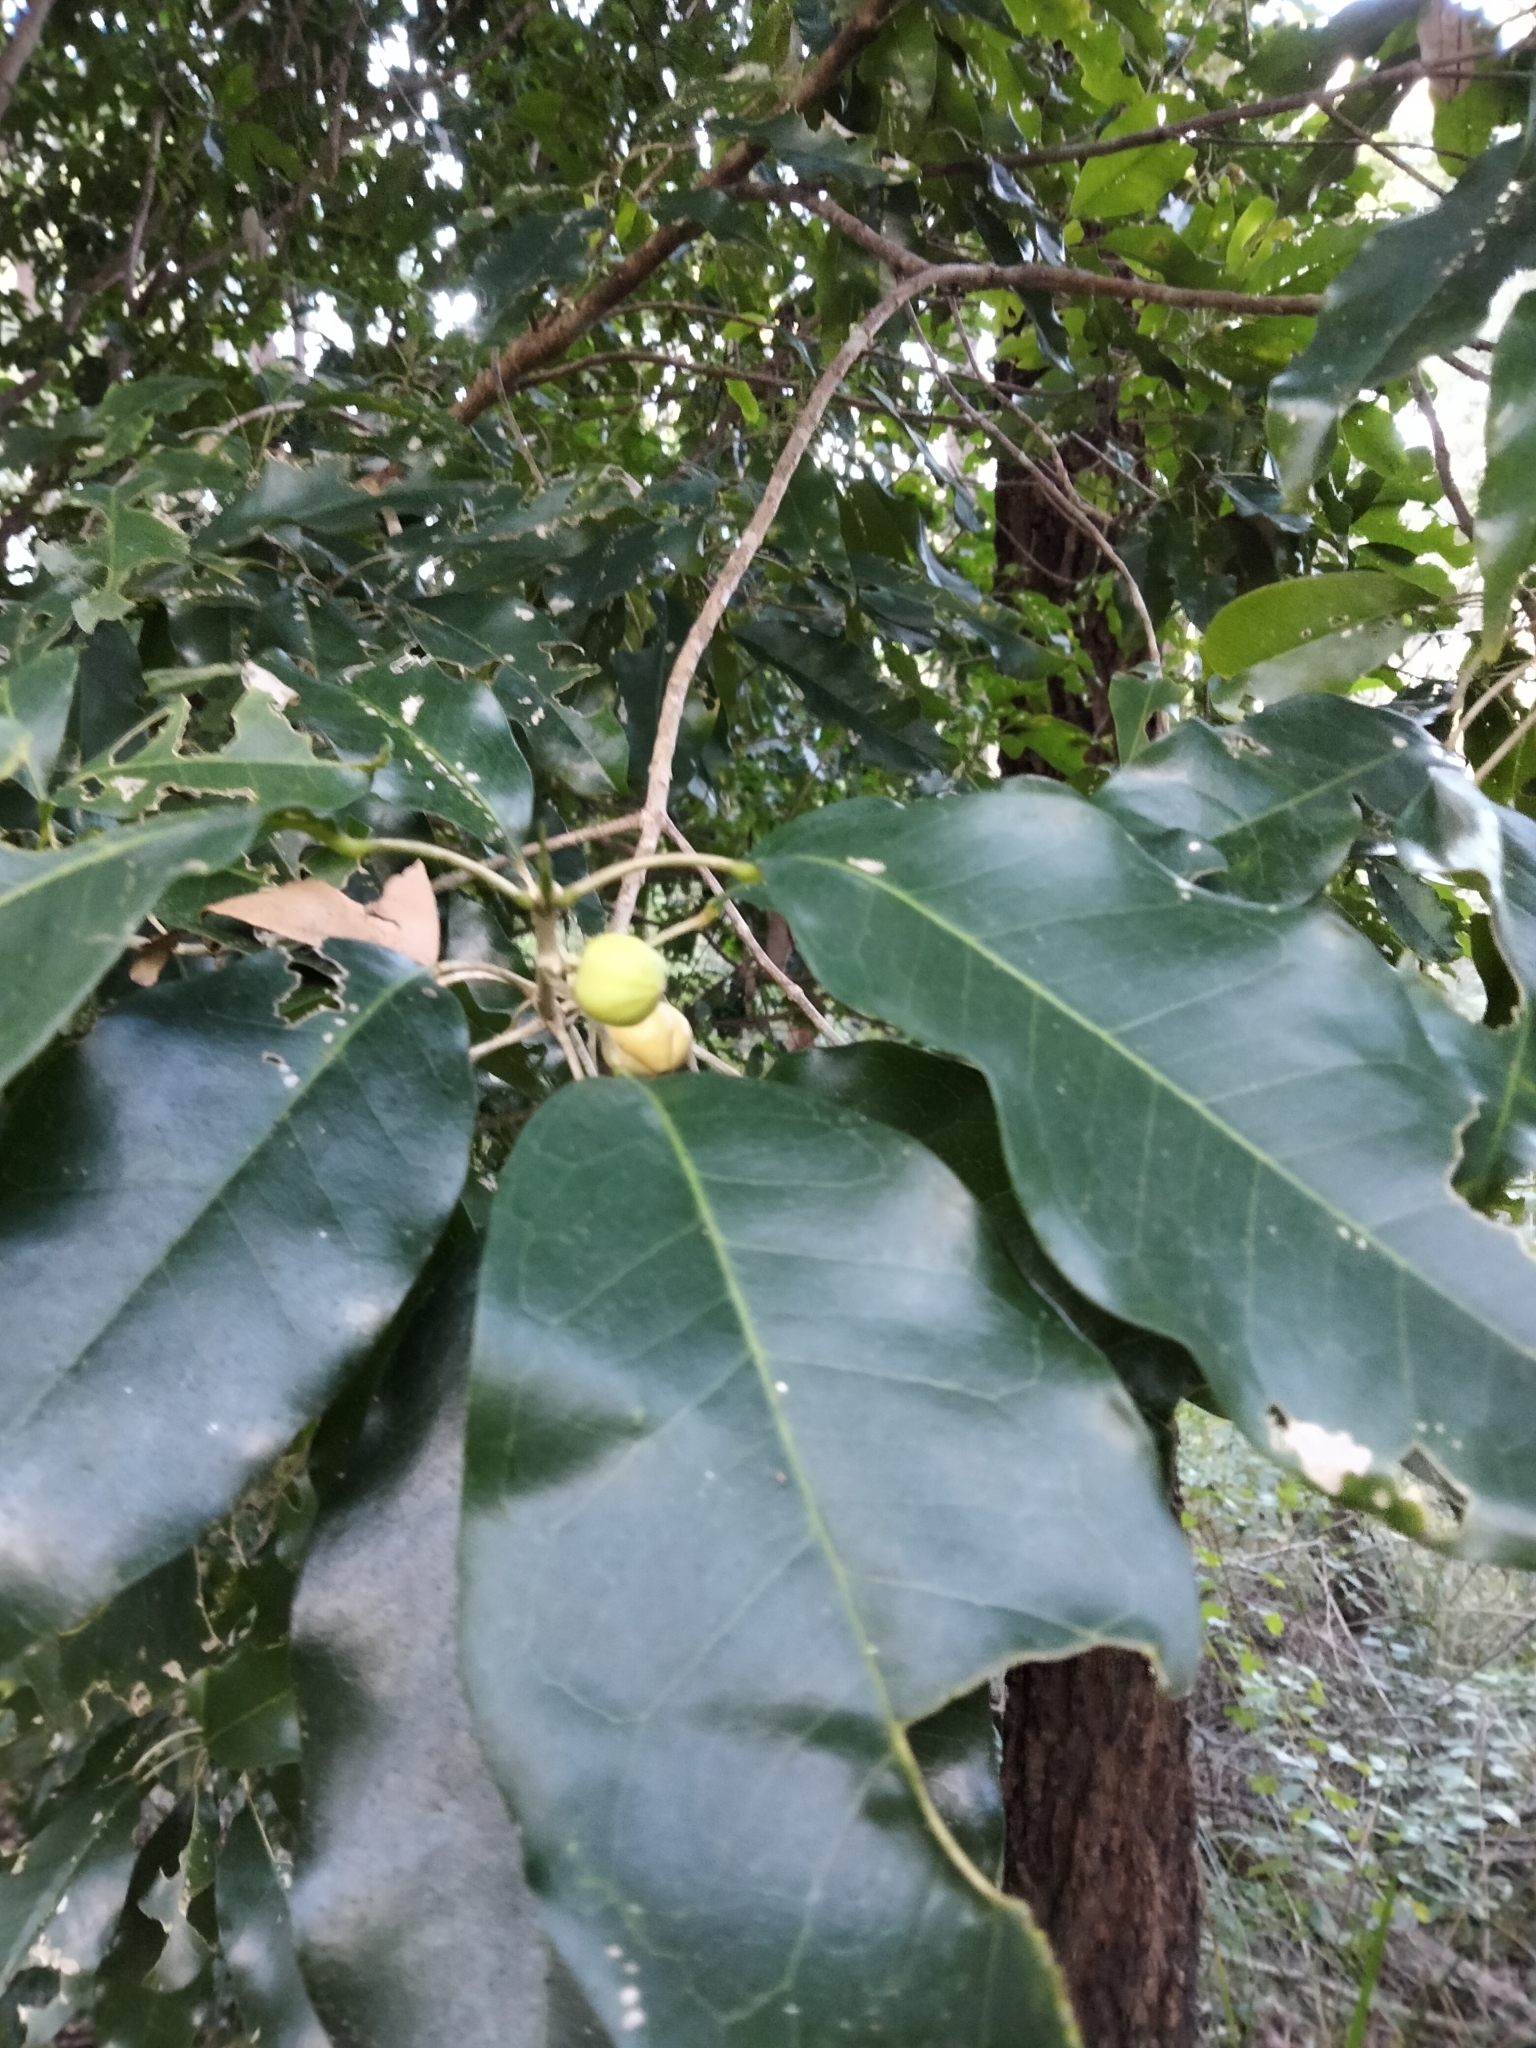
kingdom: Plantae
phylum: Tracheophyta
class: Magnoliopsida
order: Sapindales
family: Rutaceae
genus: Sarcomelicope
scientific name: Sarcomelicope simplicifolia
